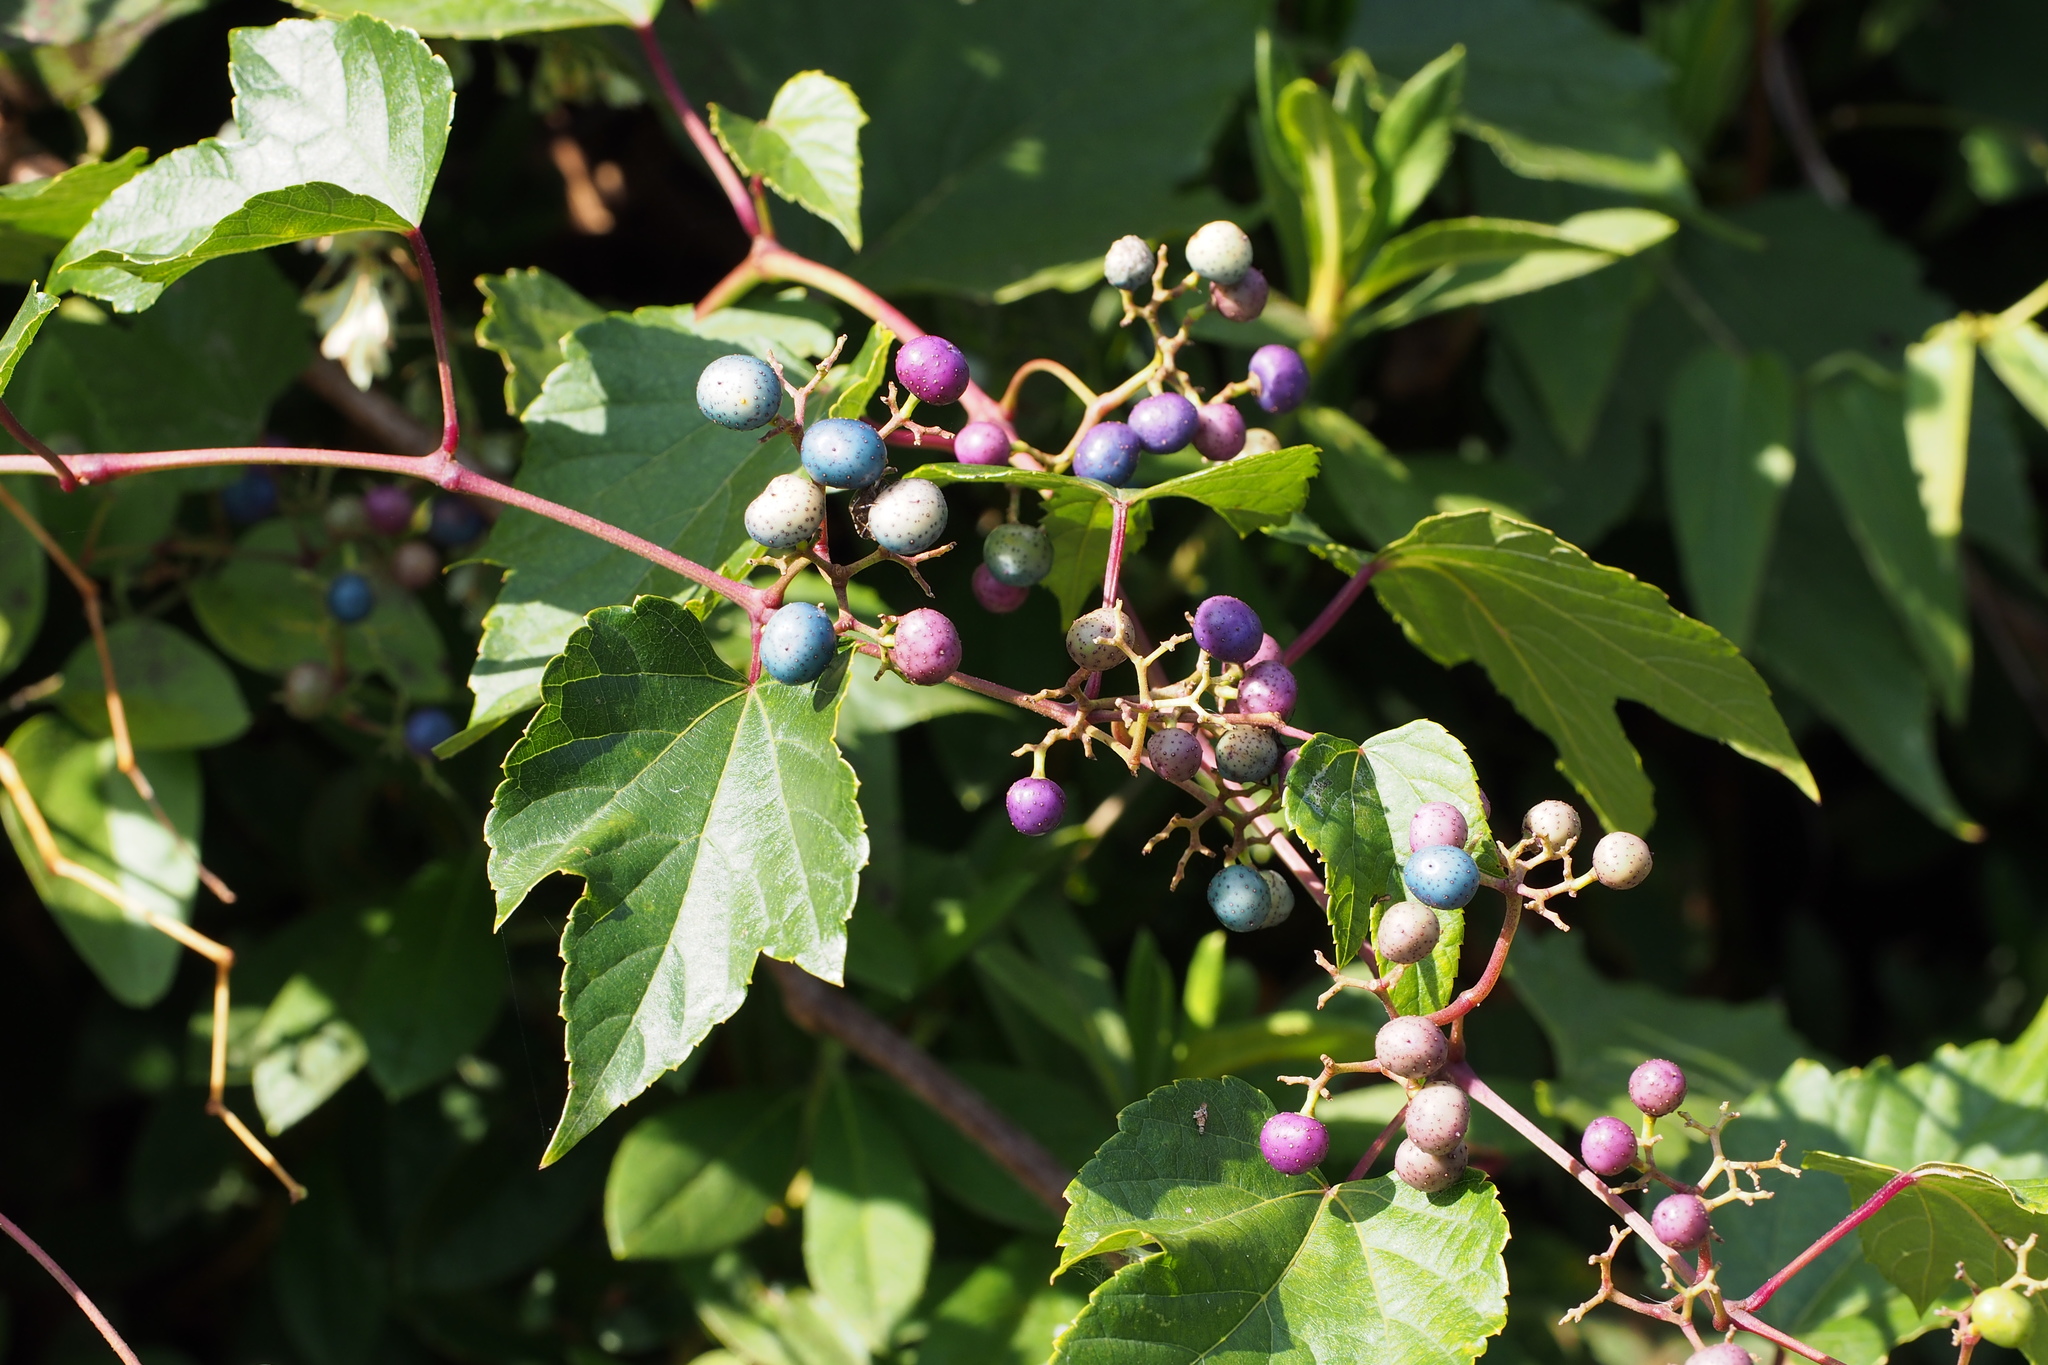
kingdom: Plantae
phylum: Tracheophyta
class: Magnoliopsida
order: Vitales
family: Vitaceae
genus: Ampelopsis
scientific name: Ampelopsis glandulosa
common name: Amur peppervine
